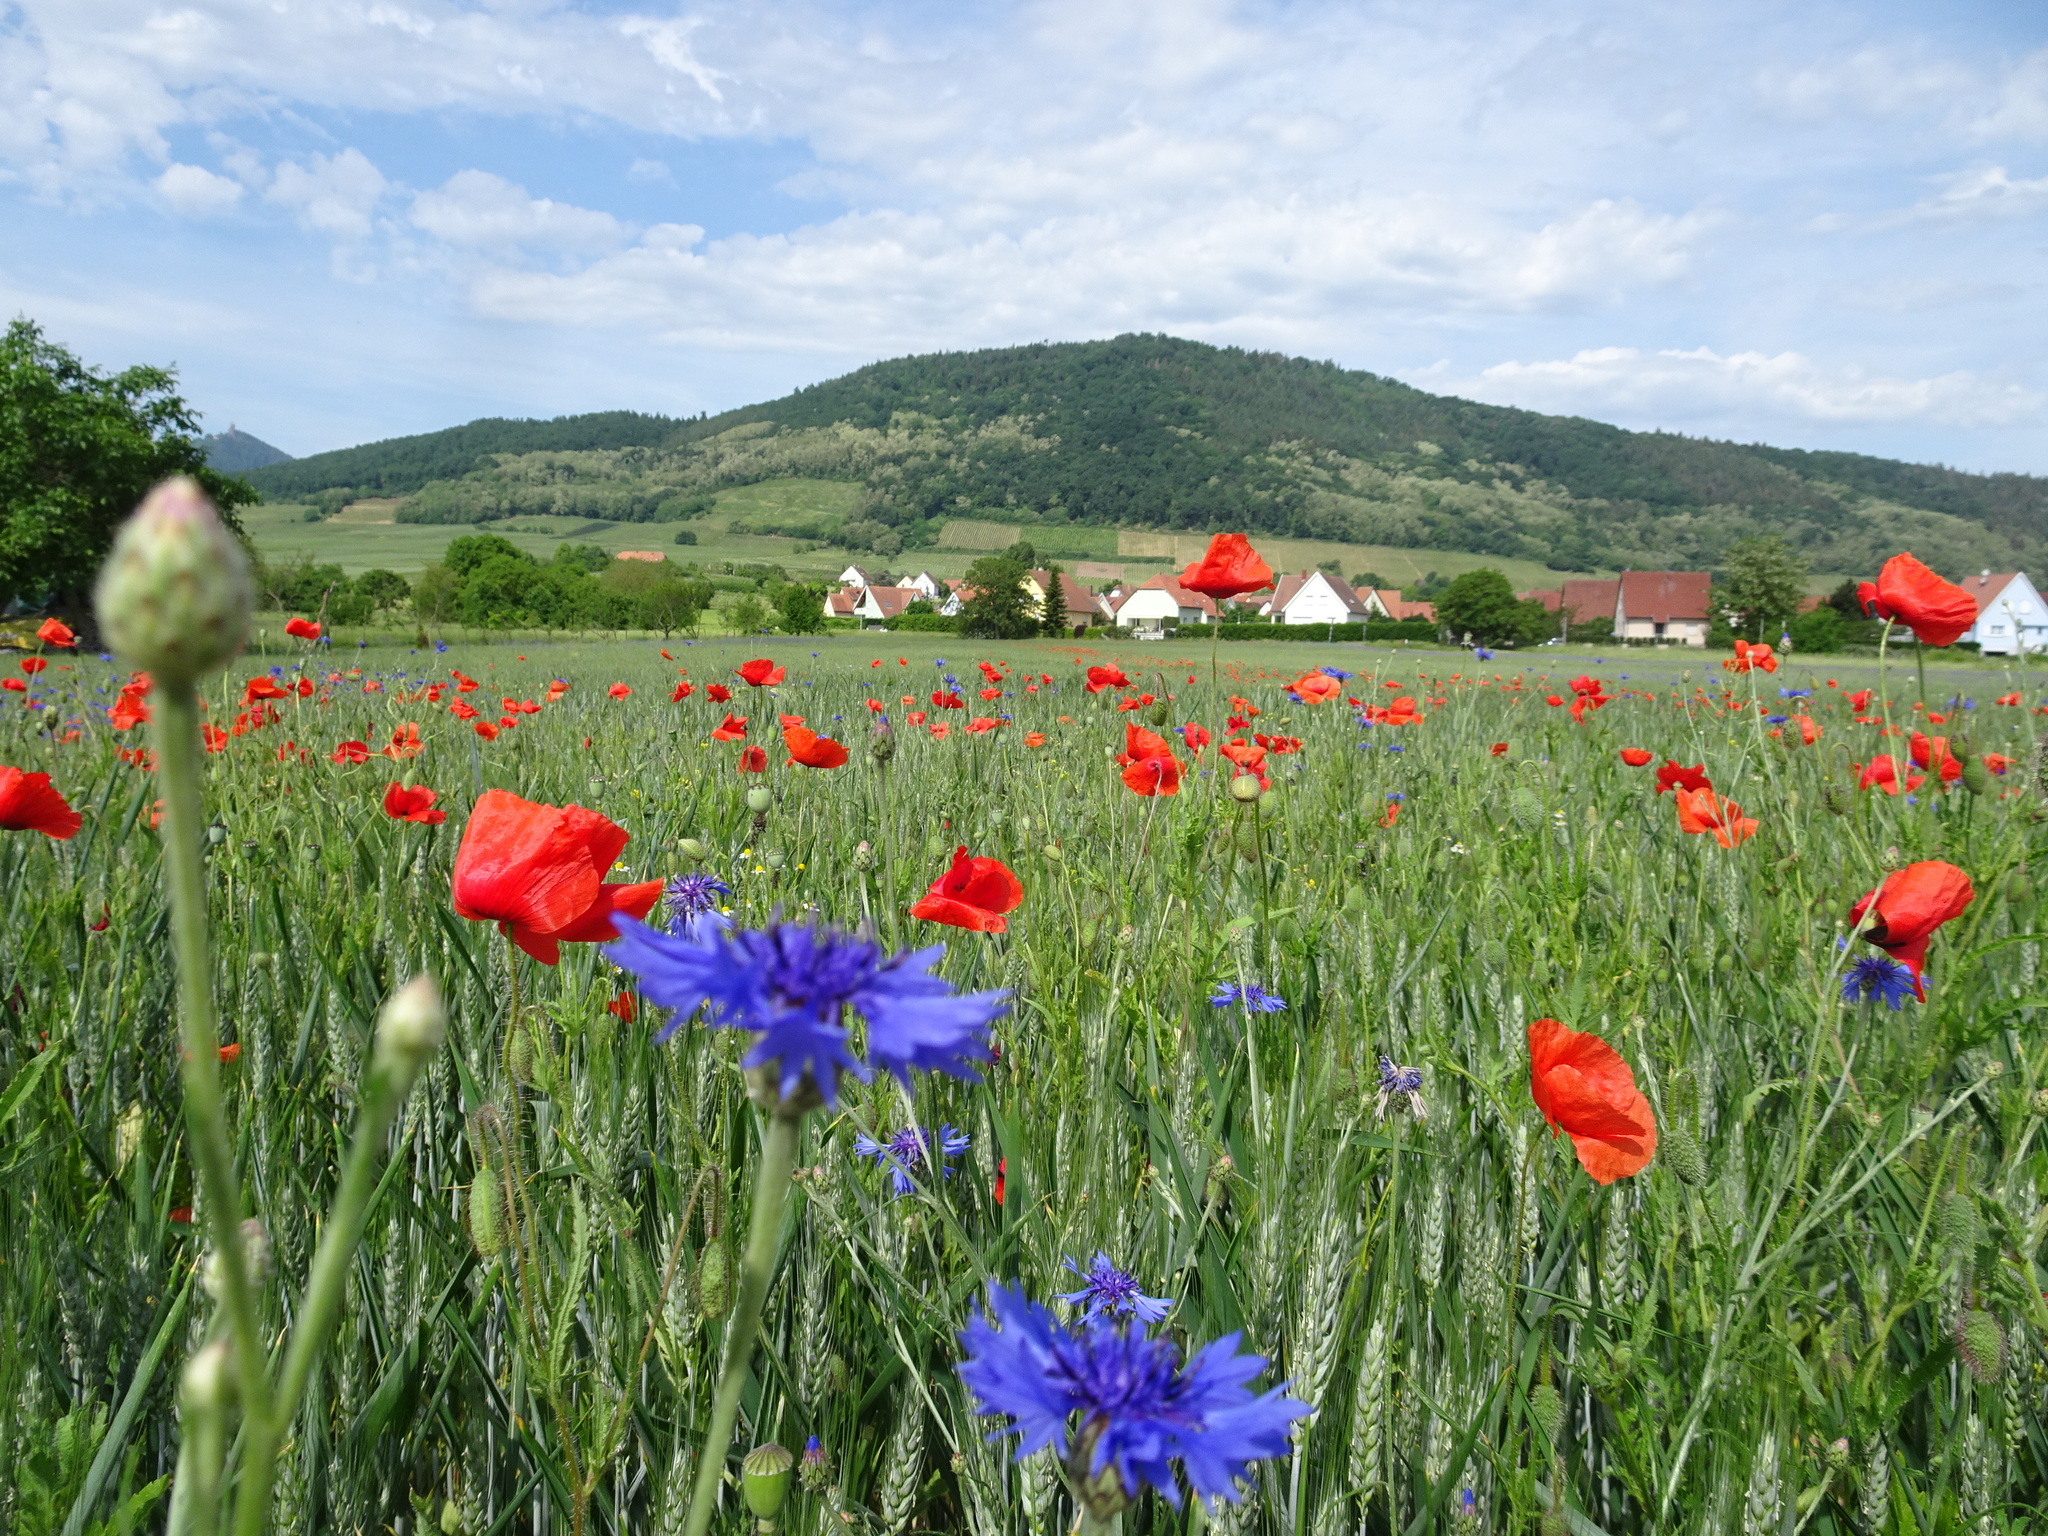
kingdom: Plantae
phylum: Tracheophyta
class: Magnoliopsida
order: Asterales
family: Asteraceae
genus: Centaurea
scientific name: Centaurea cyanus
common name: Cornflower
